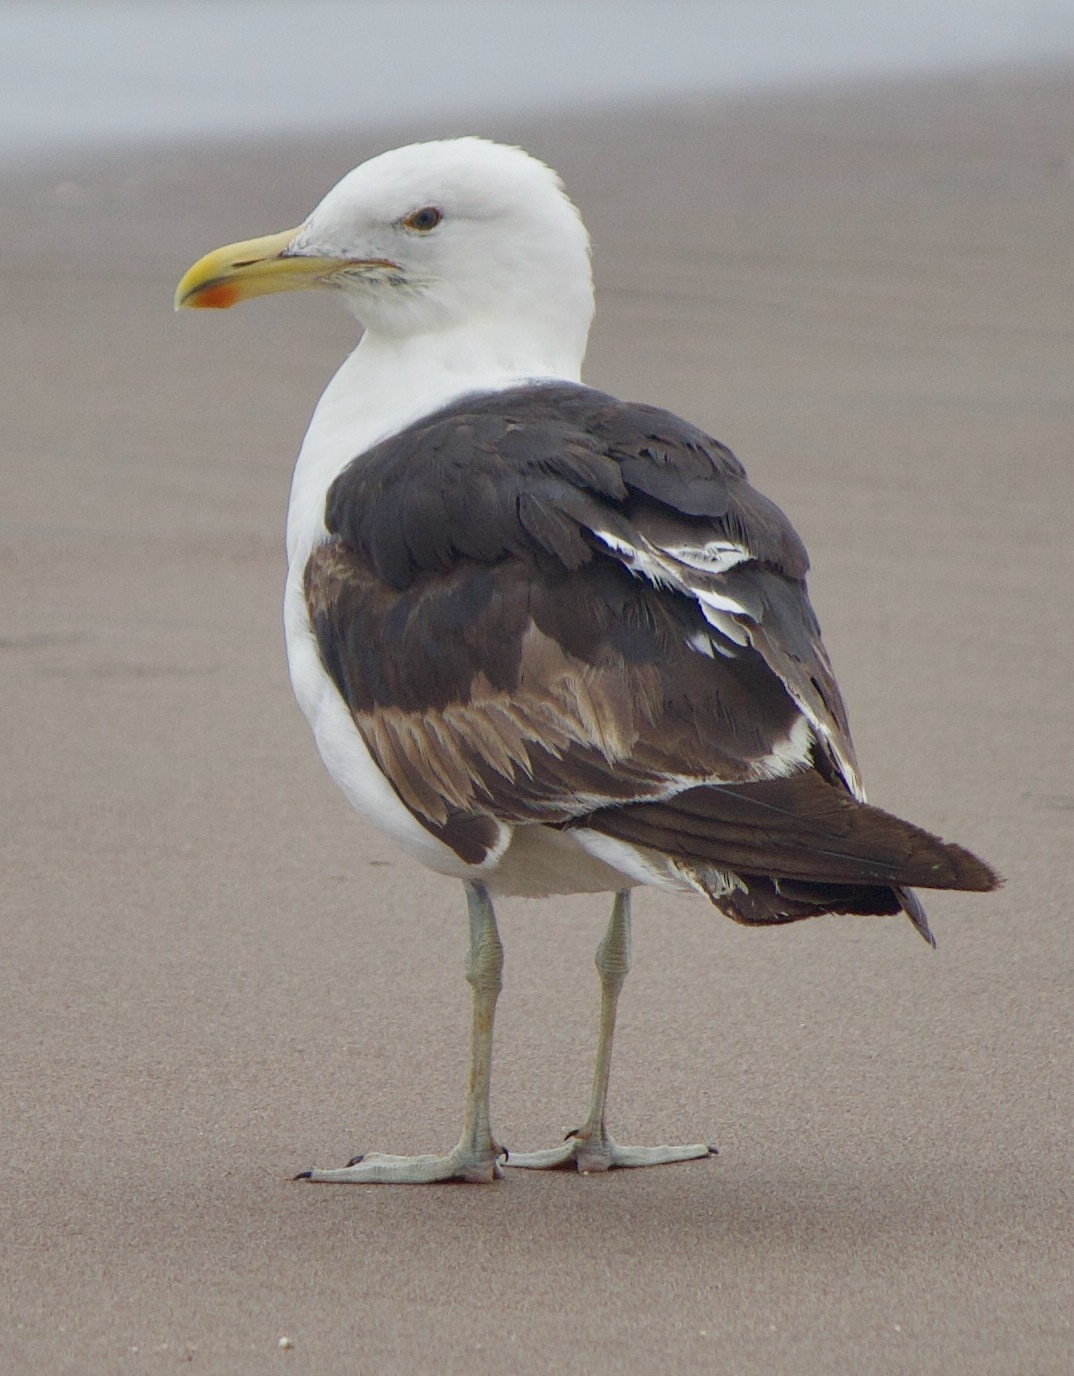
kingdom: Animalia
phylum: Chordata
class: Aves
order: Charadriiformes
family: Laridae
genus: Larus
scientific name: Larus dominicanus
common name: Kelp gull
